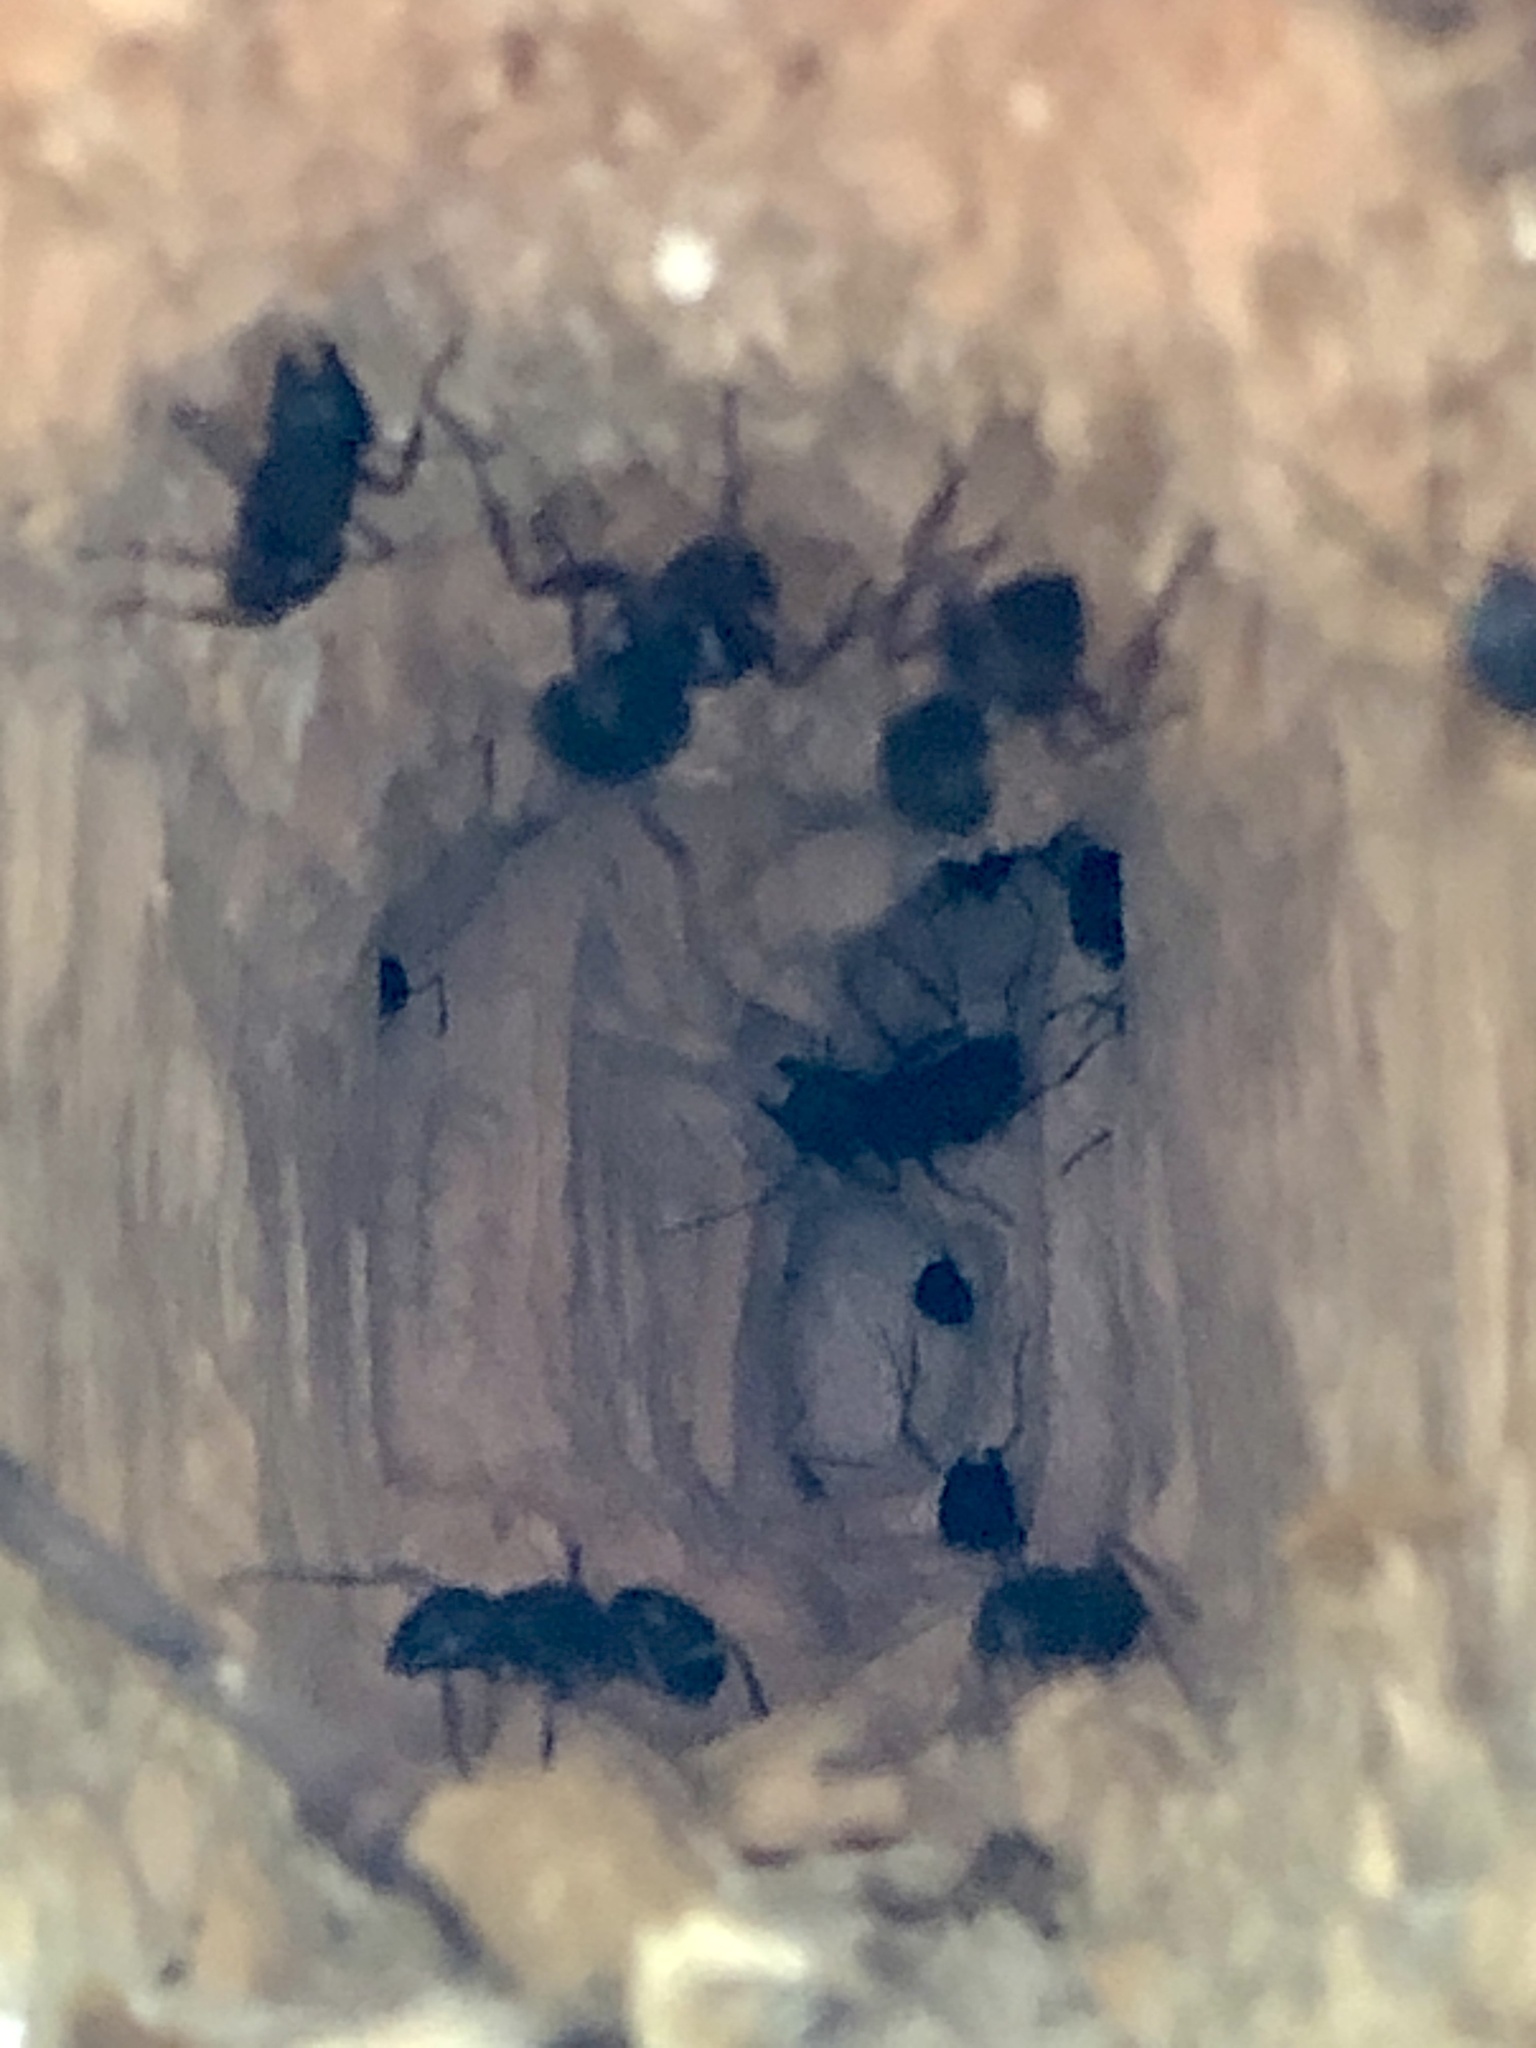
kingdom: Animalia
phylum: Arthropoda
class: Insecta
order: Hymenoptera
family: Formicidae
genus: Camponotus
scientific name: Camponotus novaeboracensis
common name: New york carpenter ant
